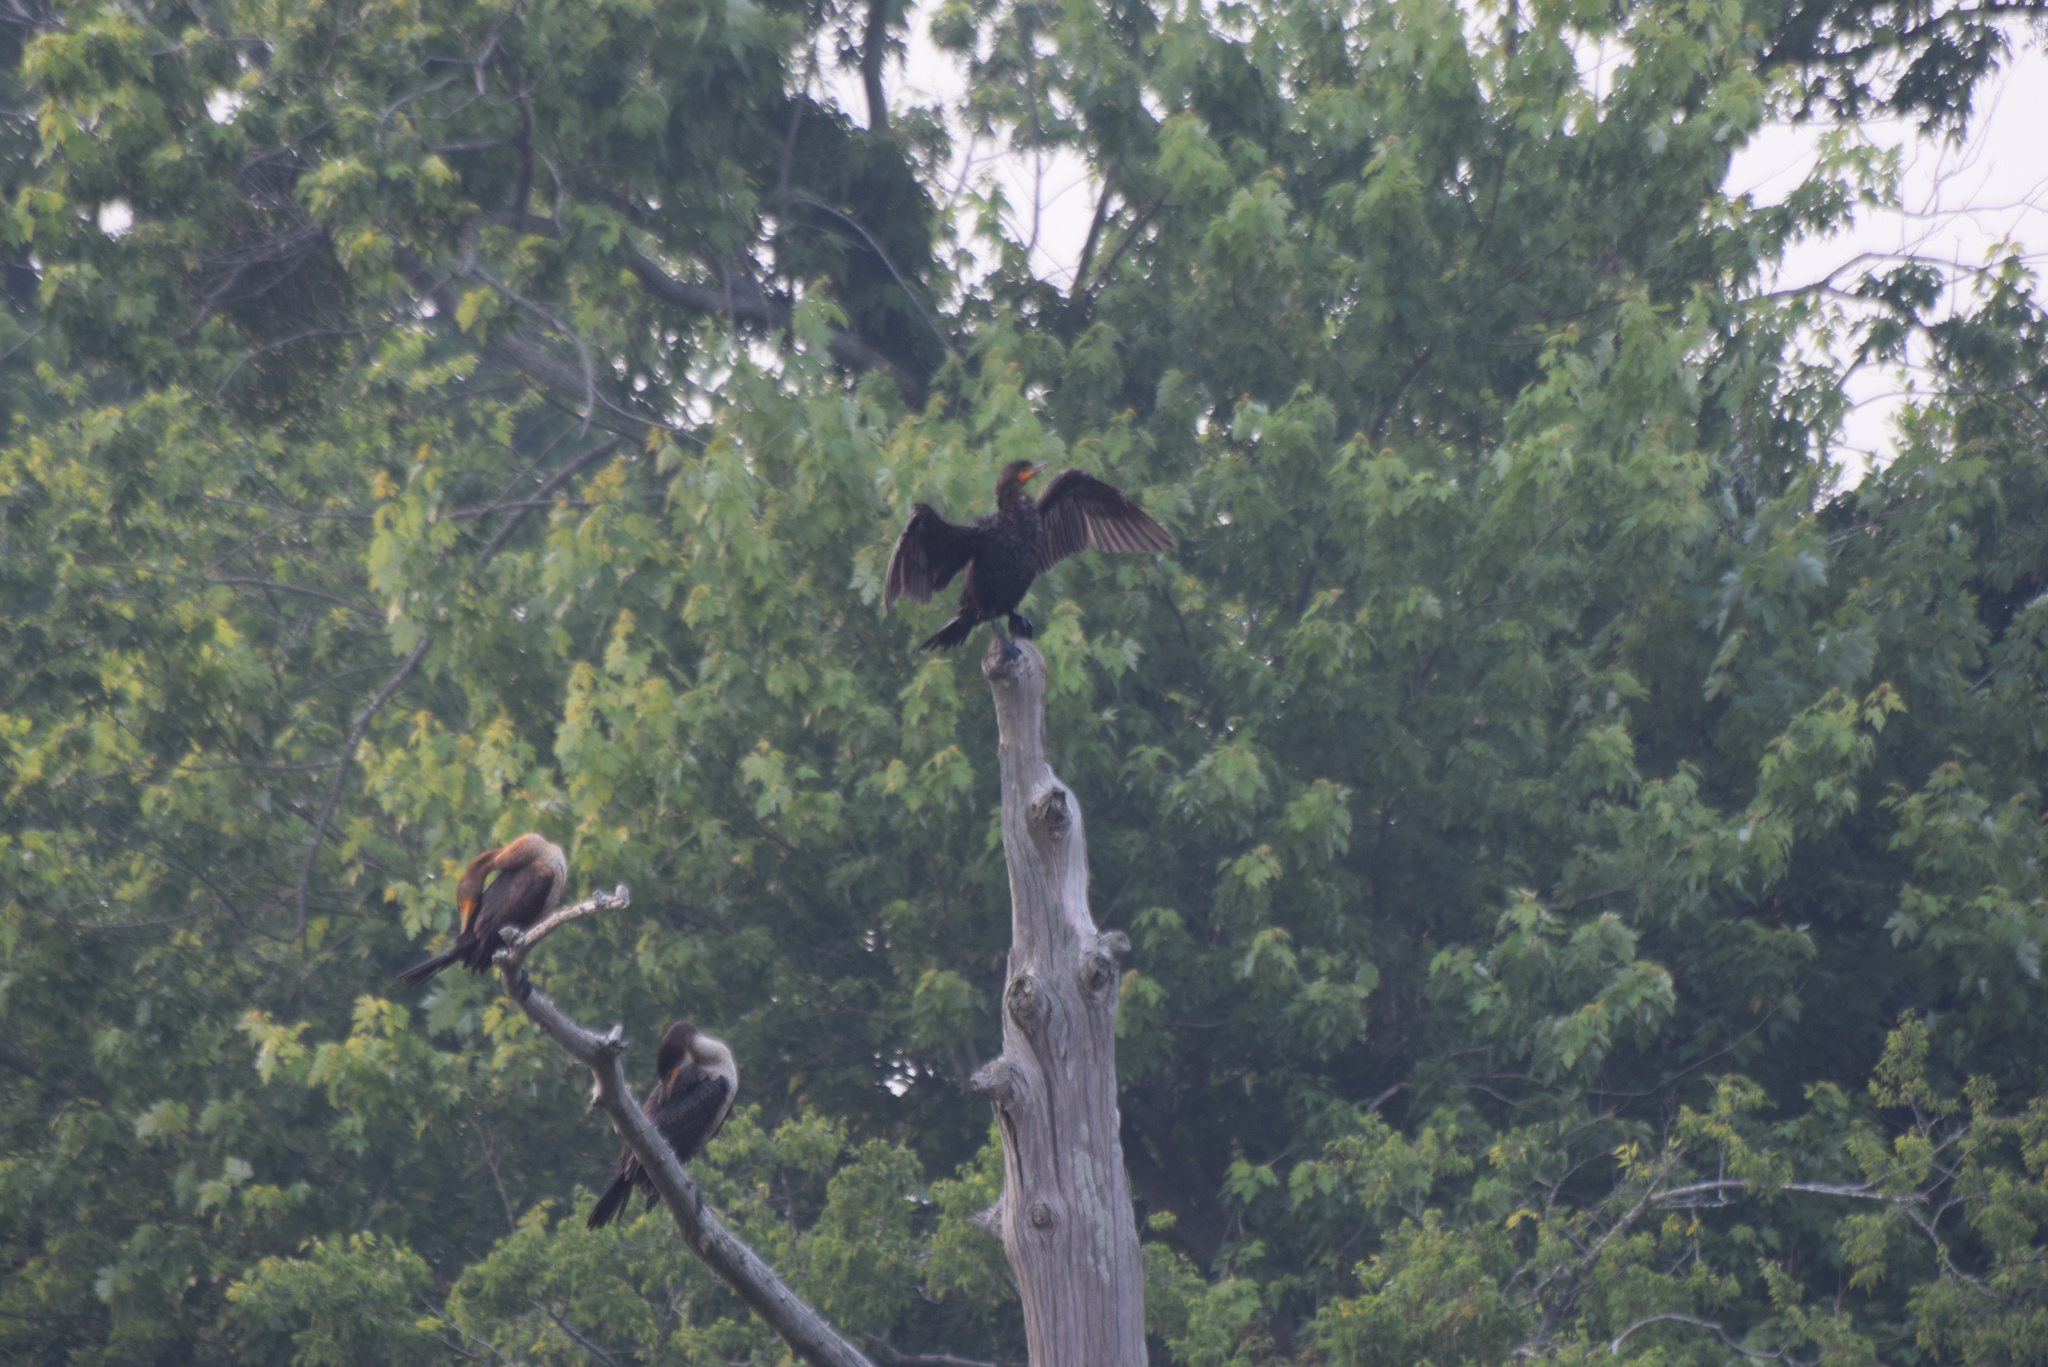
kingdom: Animalia
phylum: Chordata
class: Aves
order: Suliformes
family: Phalacrocoracidae
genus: Phalacrocorax
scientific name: Phalacrocorax auritus
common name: Double-crested cormorant
